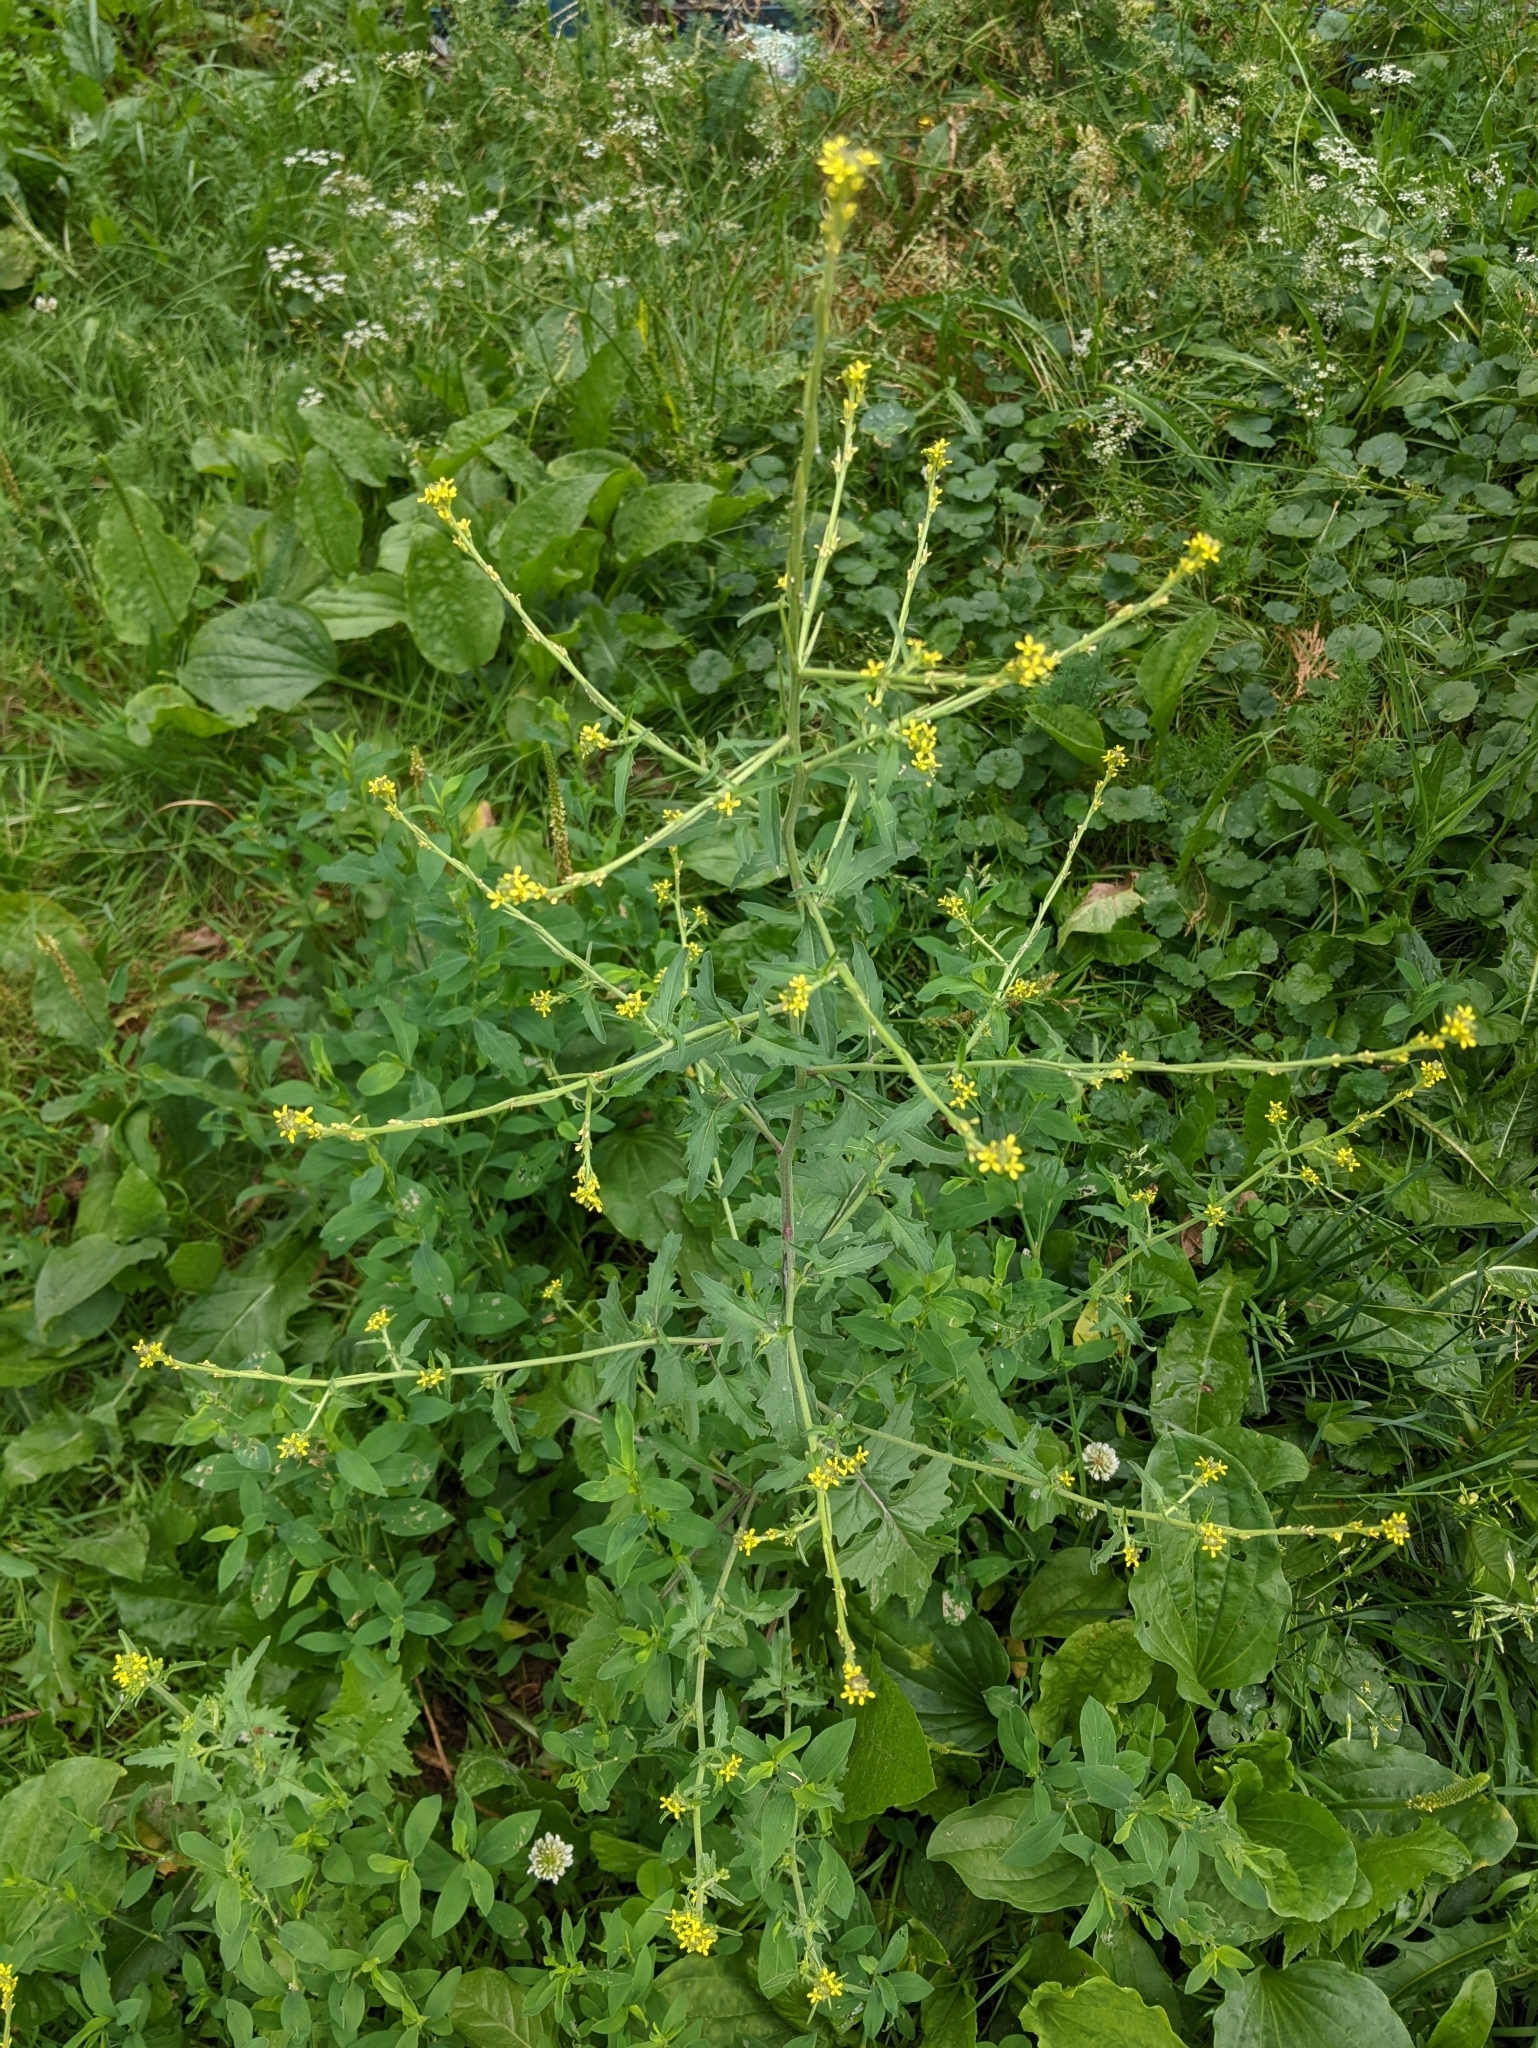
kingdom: Plantae
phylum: Tracheophyta
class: Magnoliopsida
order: Brassicales
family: Brassicaceae
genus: Sisymbrium
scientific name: Sisymbrium officinale
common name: Hedge mustard
